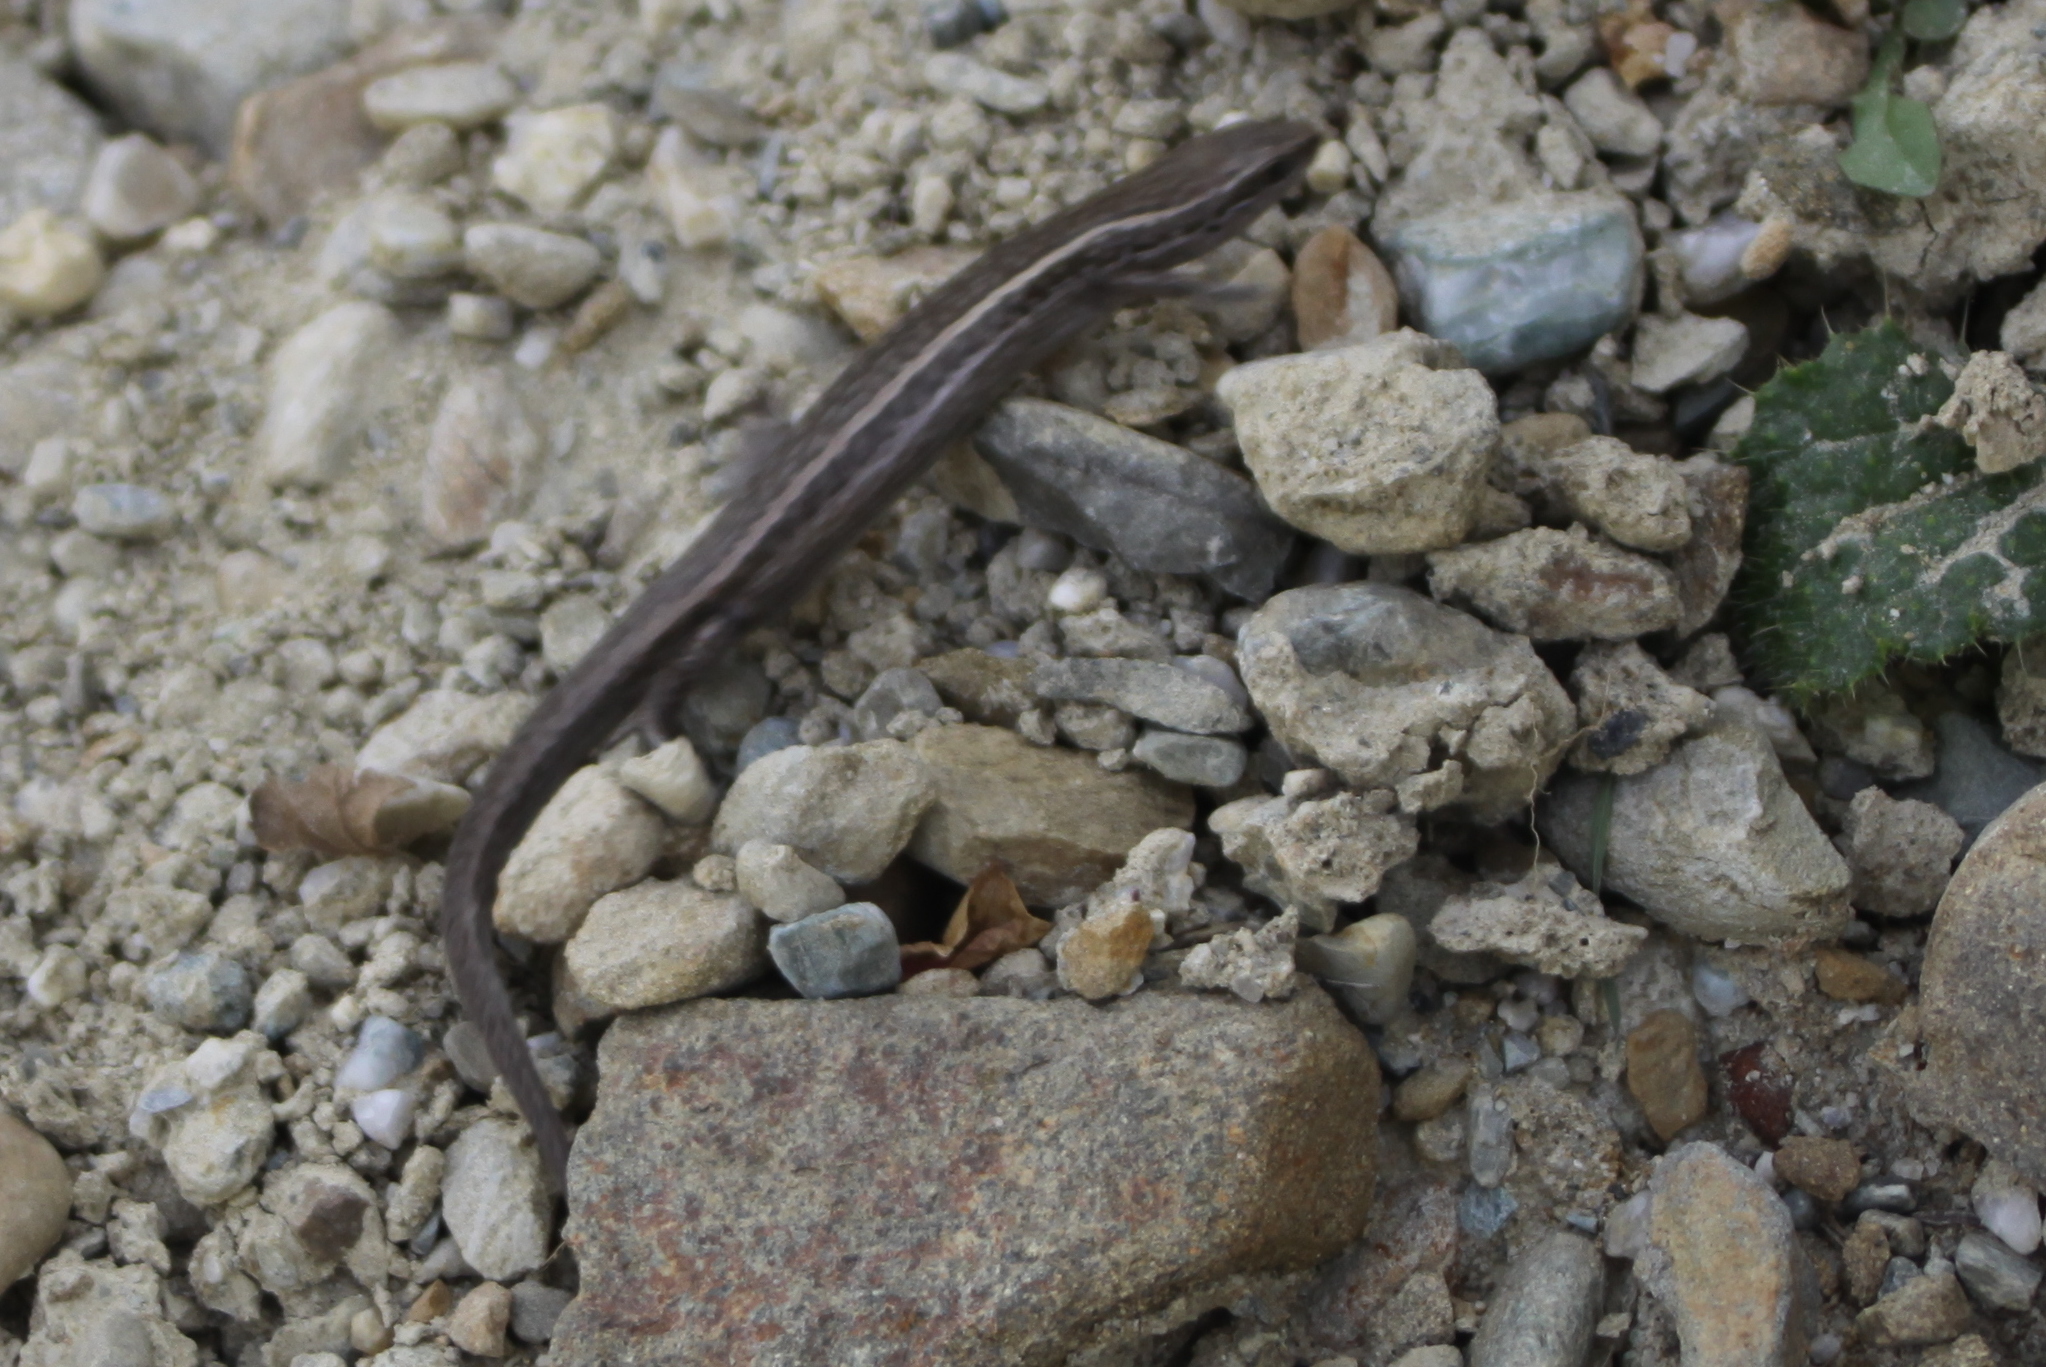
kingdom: Animalia
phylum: Chordata
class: Squamata
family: Scincidae
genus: Oligosoma
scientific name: Oligosoma maccanni
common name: Mccann’s skink
